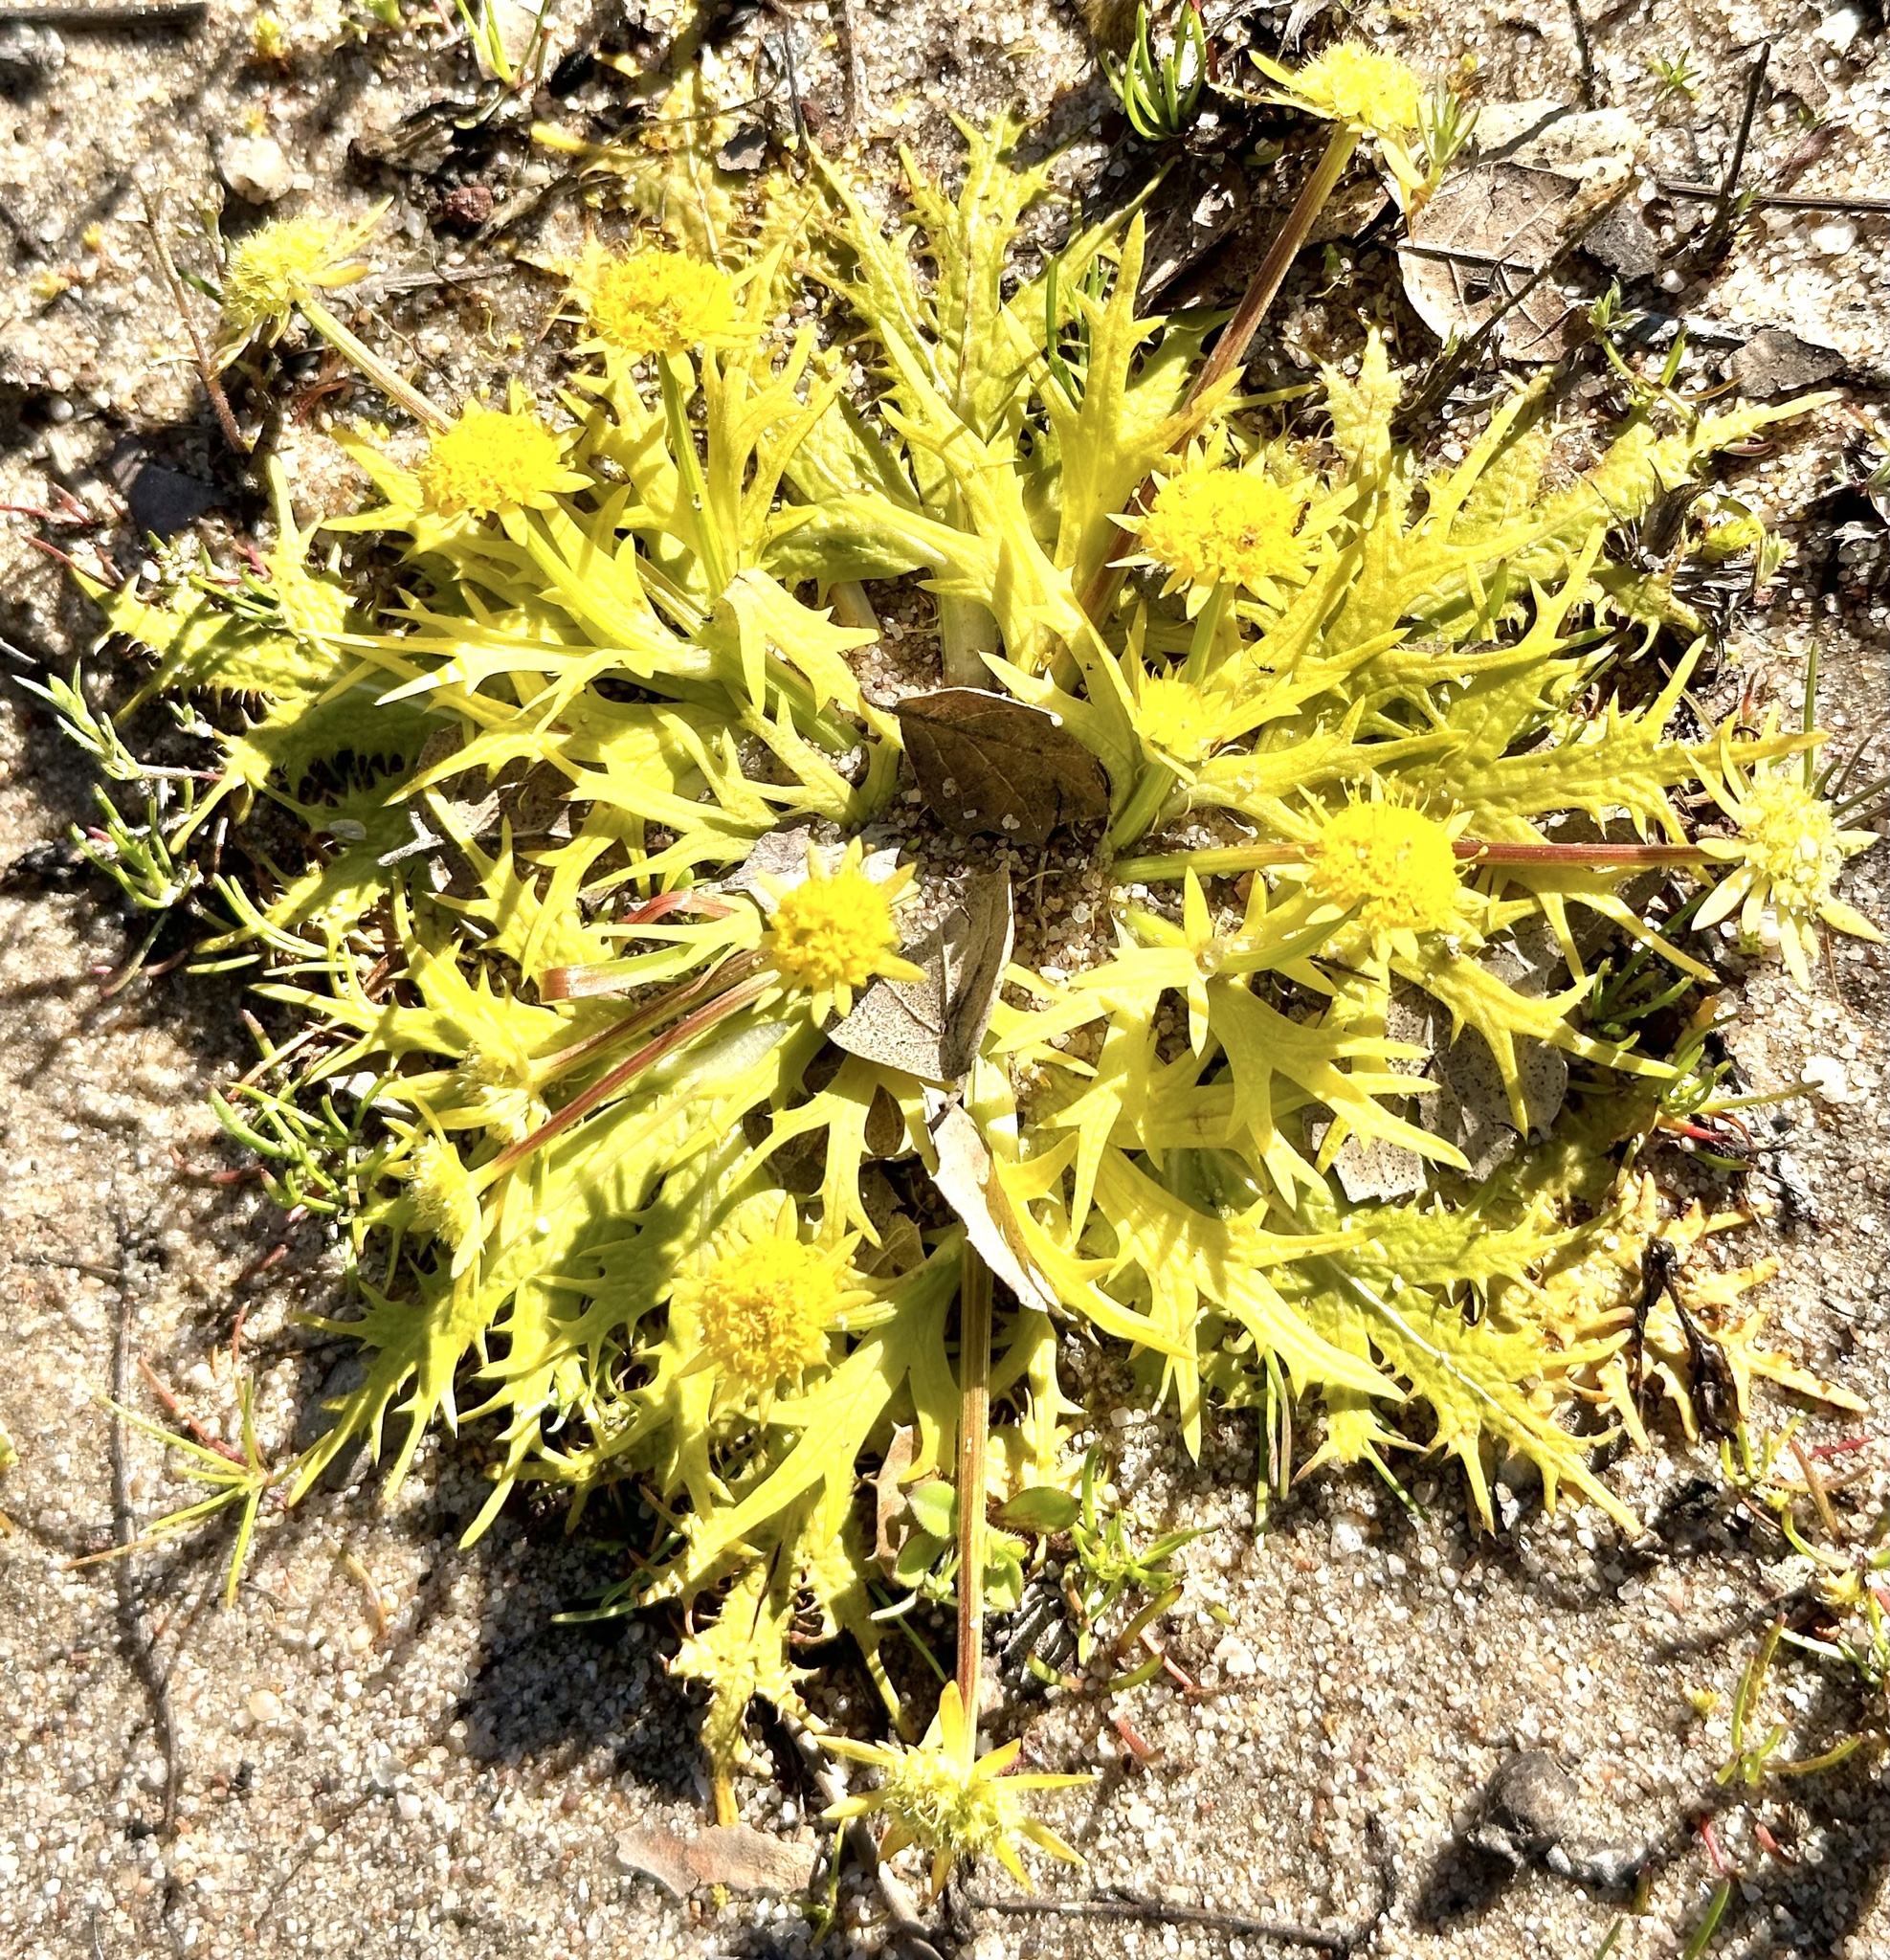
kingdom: Plantae
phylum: Tracheophyta
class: Magnoliopsida
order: Apiales
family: Apiaceae
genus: Sanicula
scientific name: Sanicula arctopoides
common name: Footsteps-of-spring
